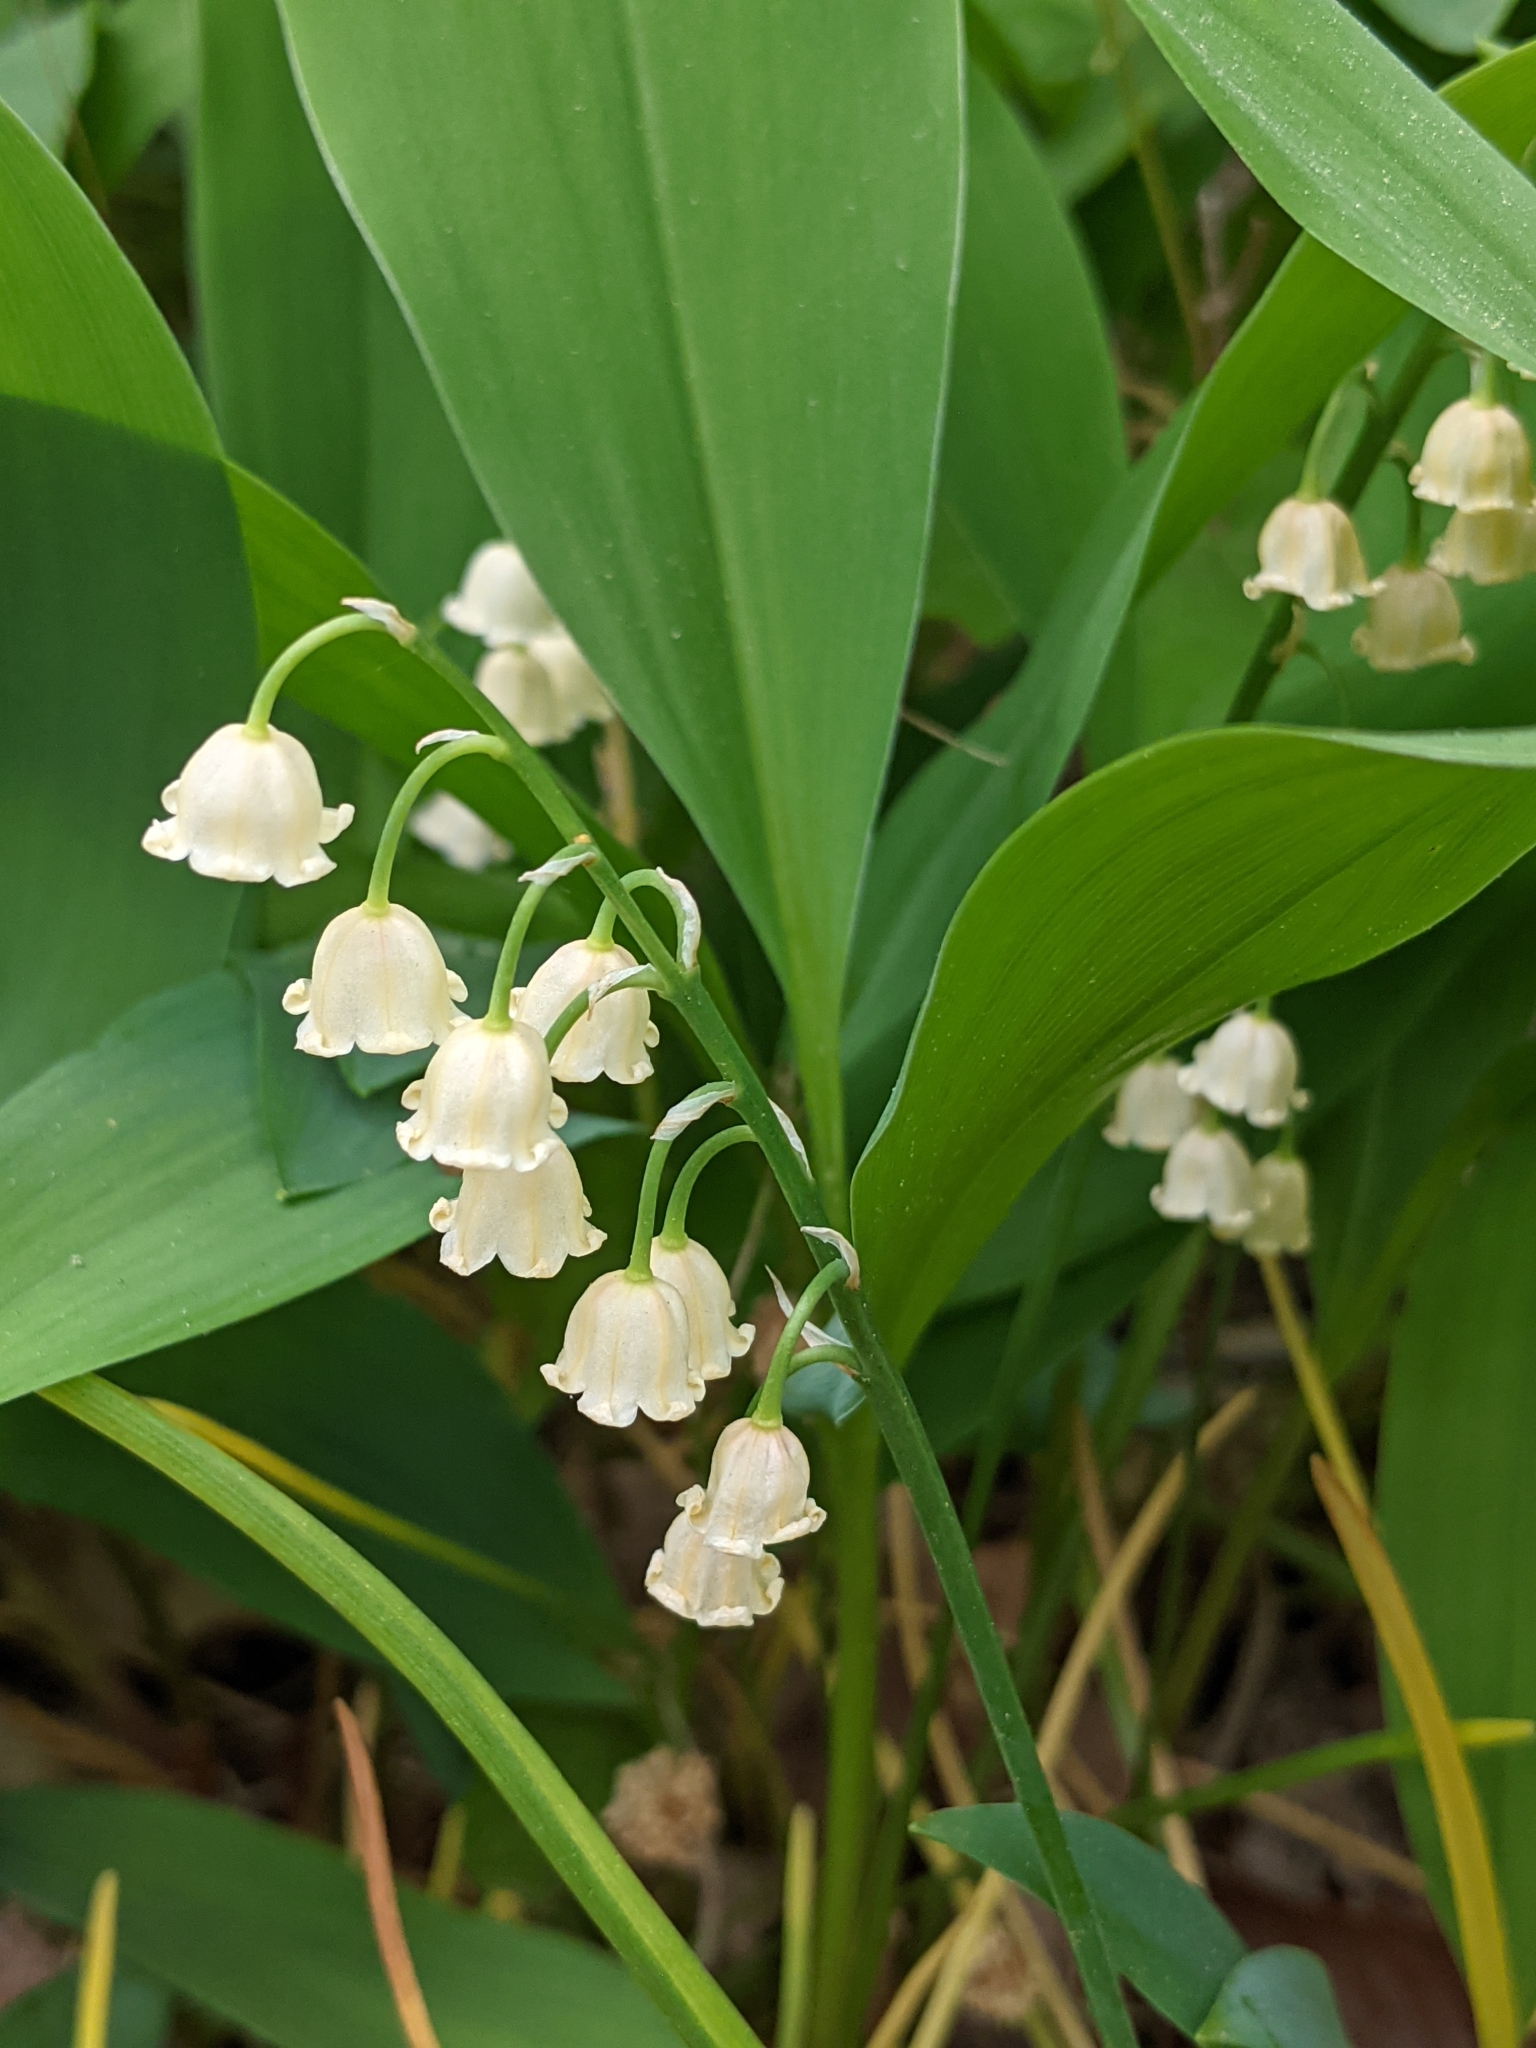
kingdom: Plantae
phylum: Tracheophyta
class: Liliopsida
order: Asparagales
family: Asparagaceae
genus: Convallaria
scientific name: Convallaria majalis
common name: Lily-of-the-valley
